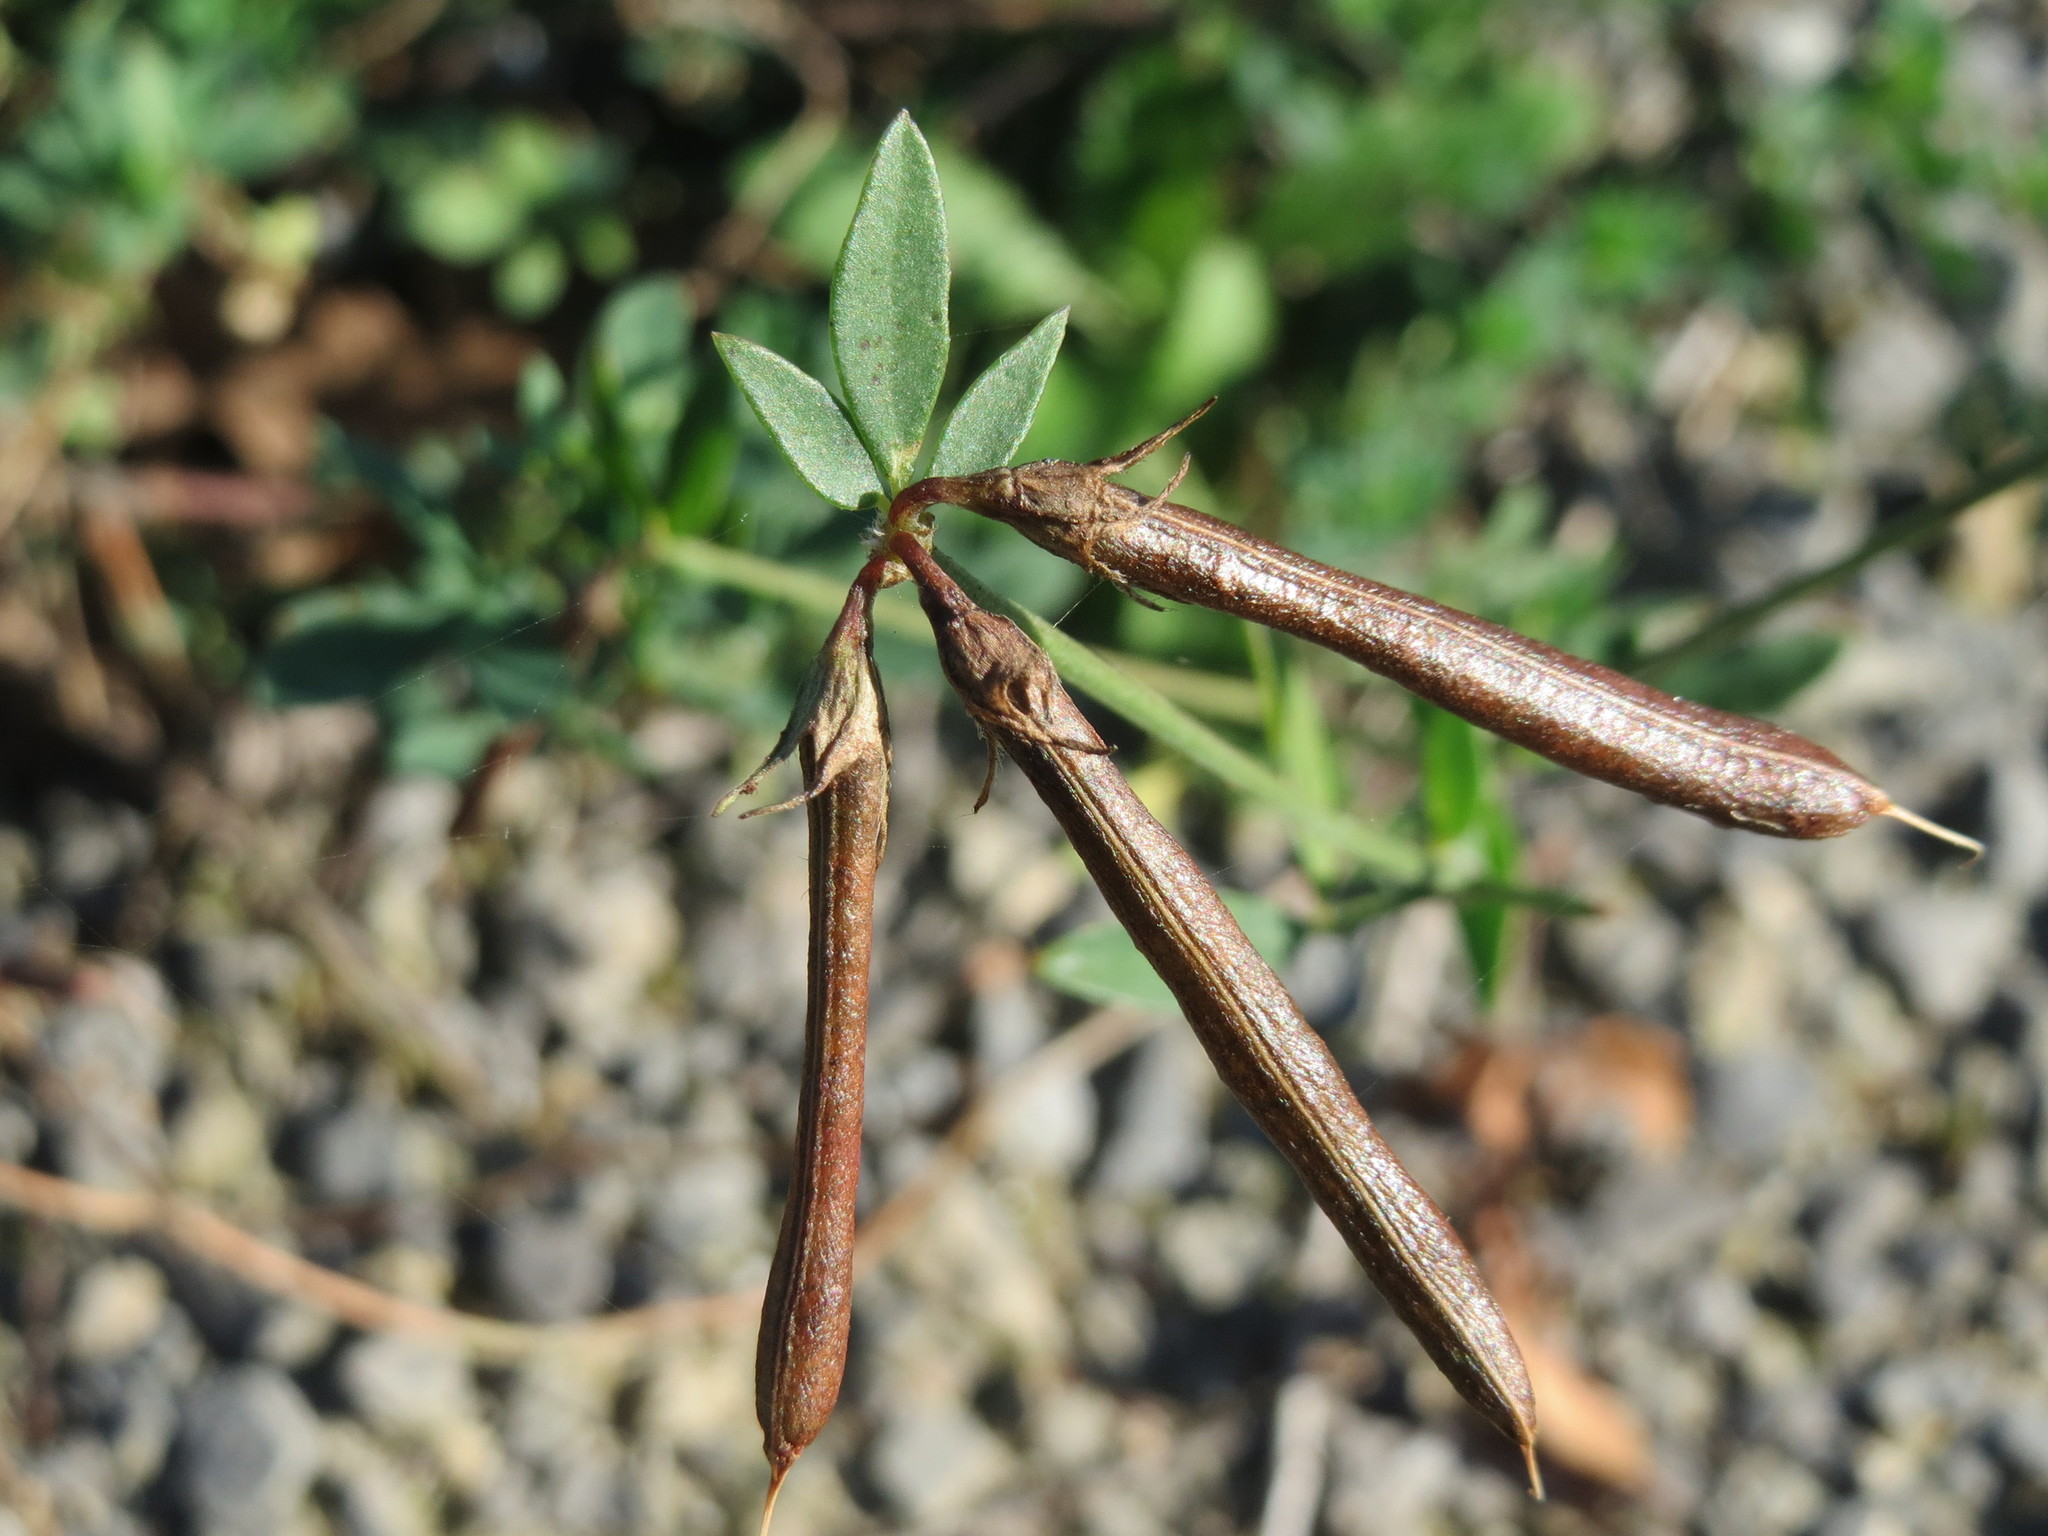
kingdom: Plantae
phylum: Tracheophyta
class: Magnoliopsida
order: Fabales
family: Fabaceae
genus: Lotus
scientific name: Lotus corniculatus
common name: Common bird's-foot-trefoil
